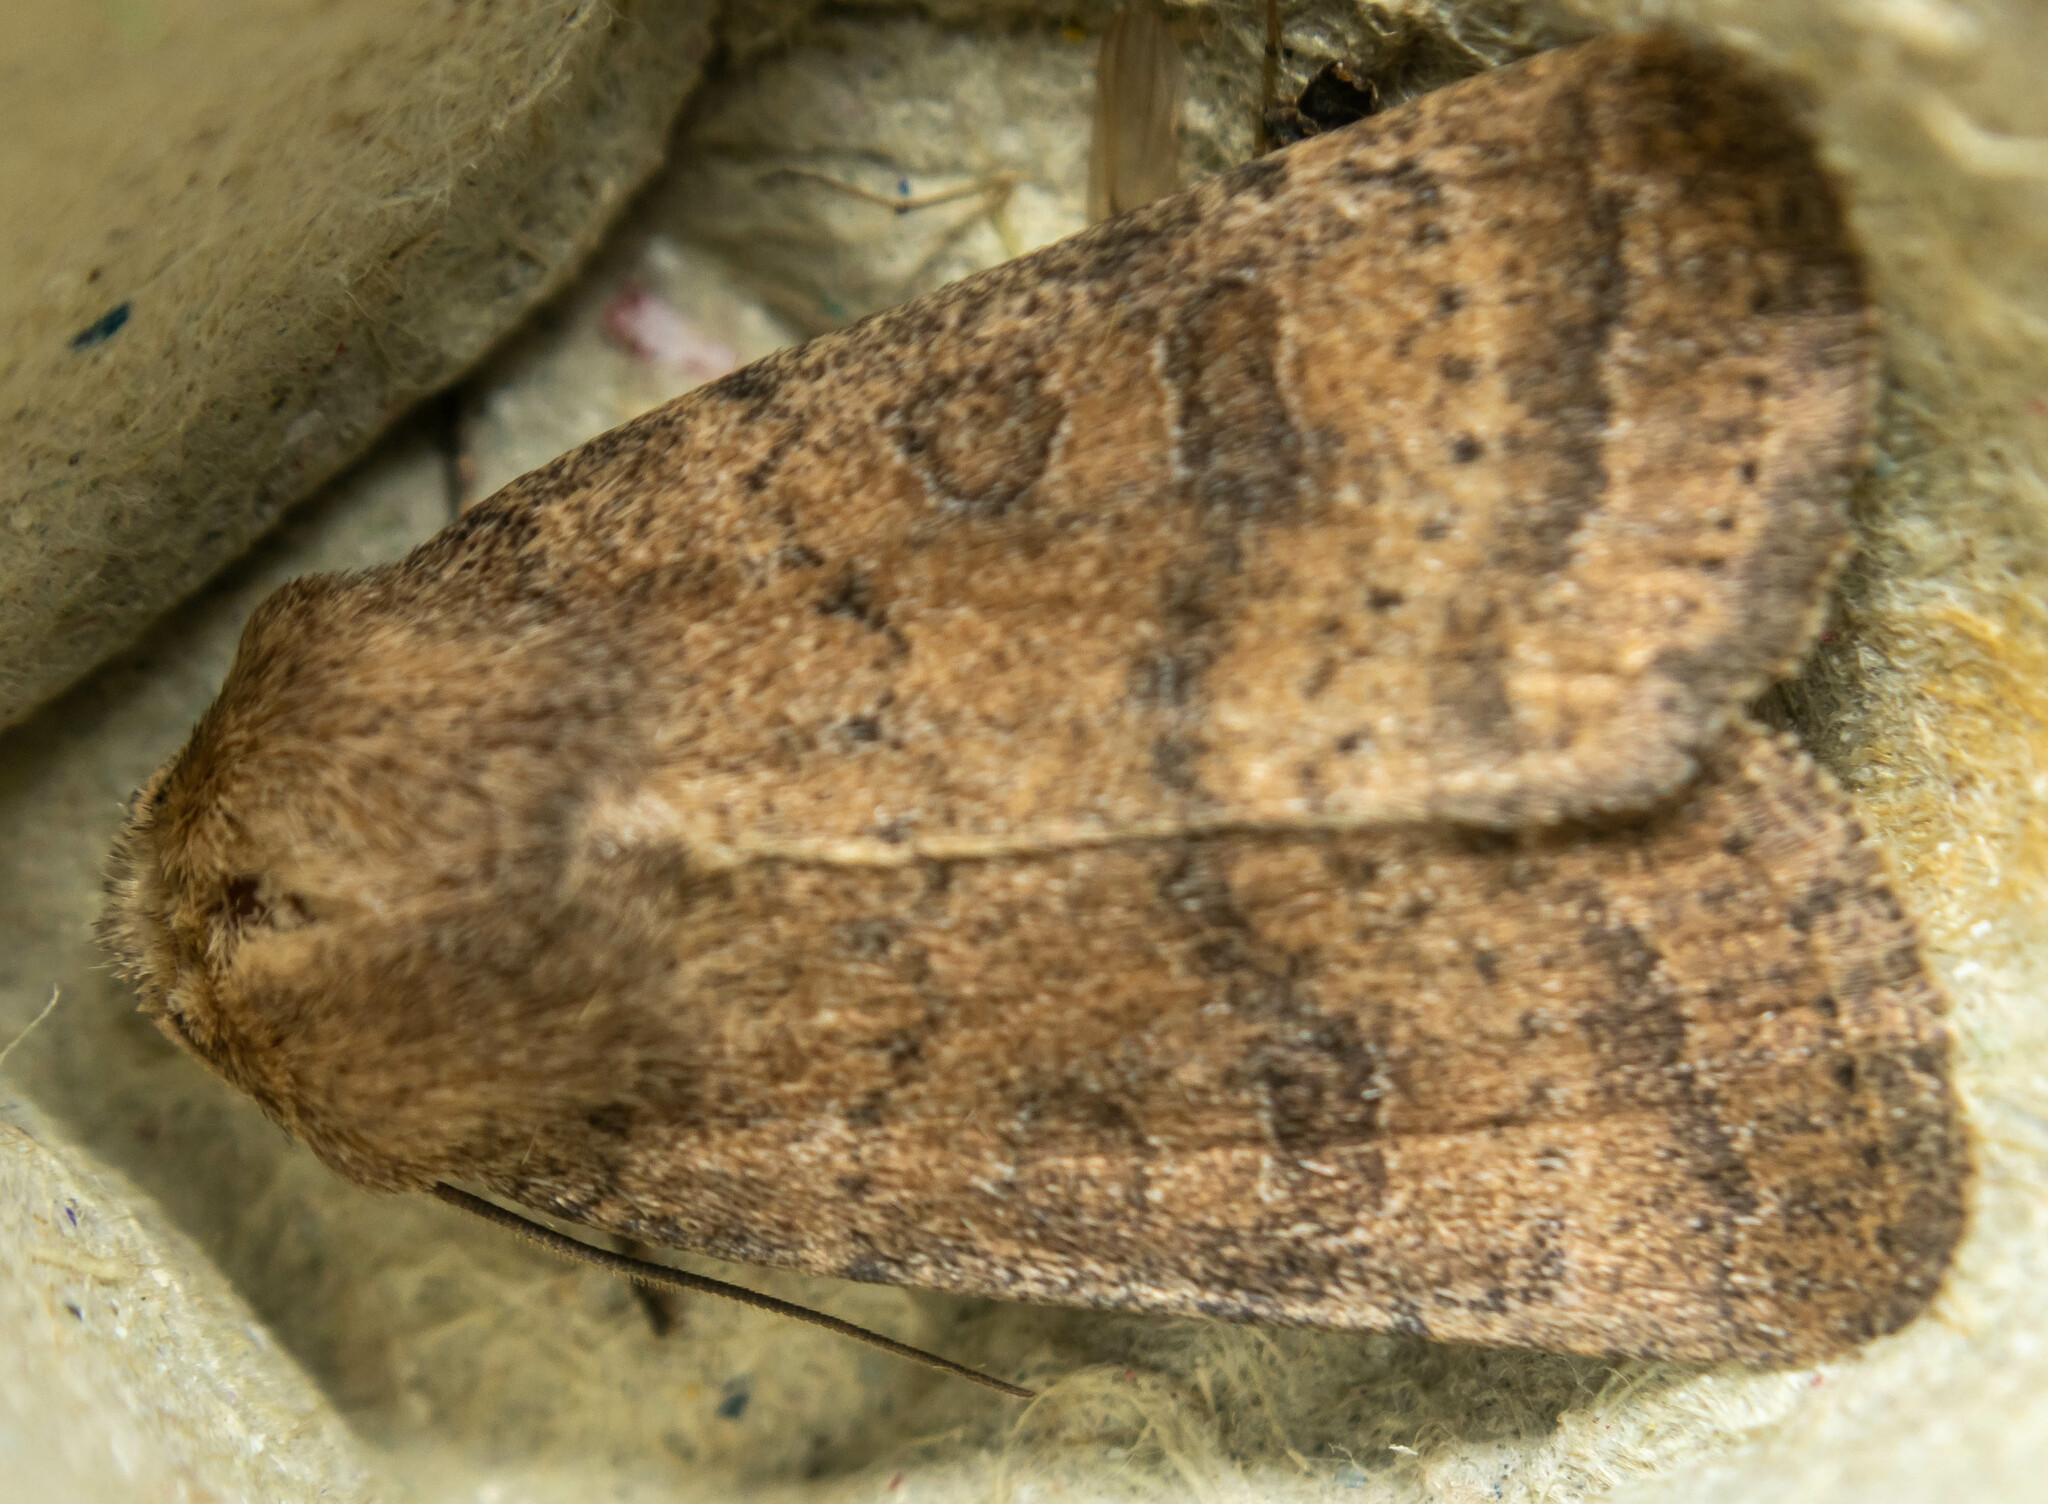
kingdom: Animalia
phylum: Arthropoda
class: Insecta
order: Lepidoptera
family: Noctuidae
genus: Hoplodrina
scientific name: Hoplodrina octogenaria
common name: Uncertain
